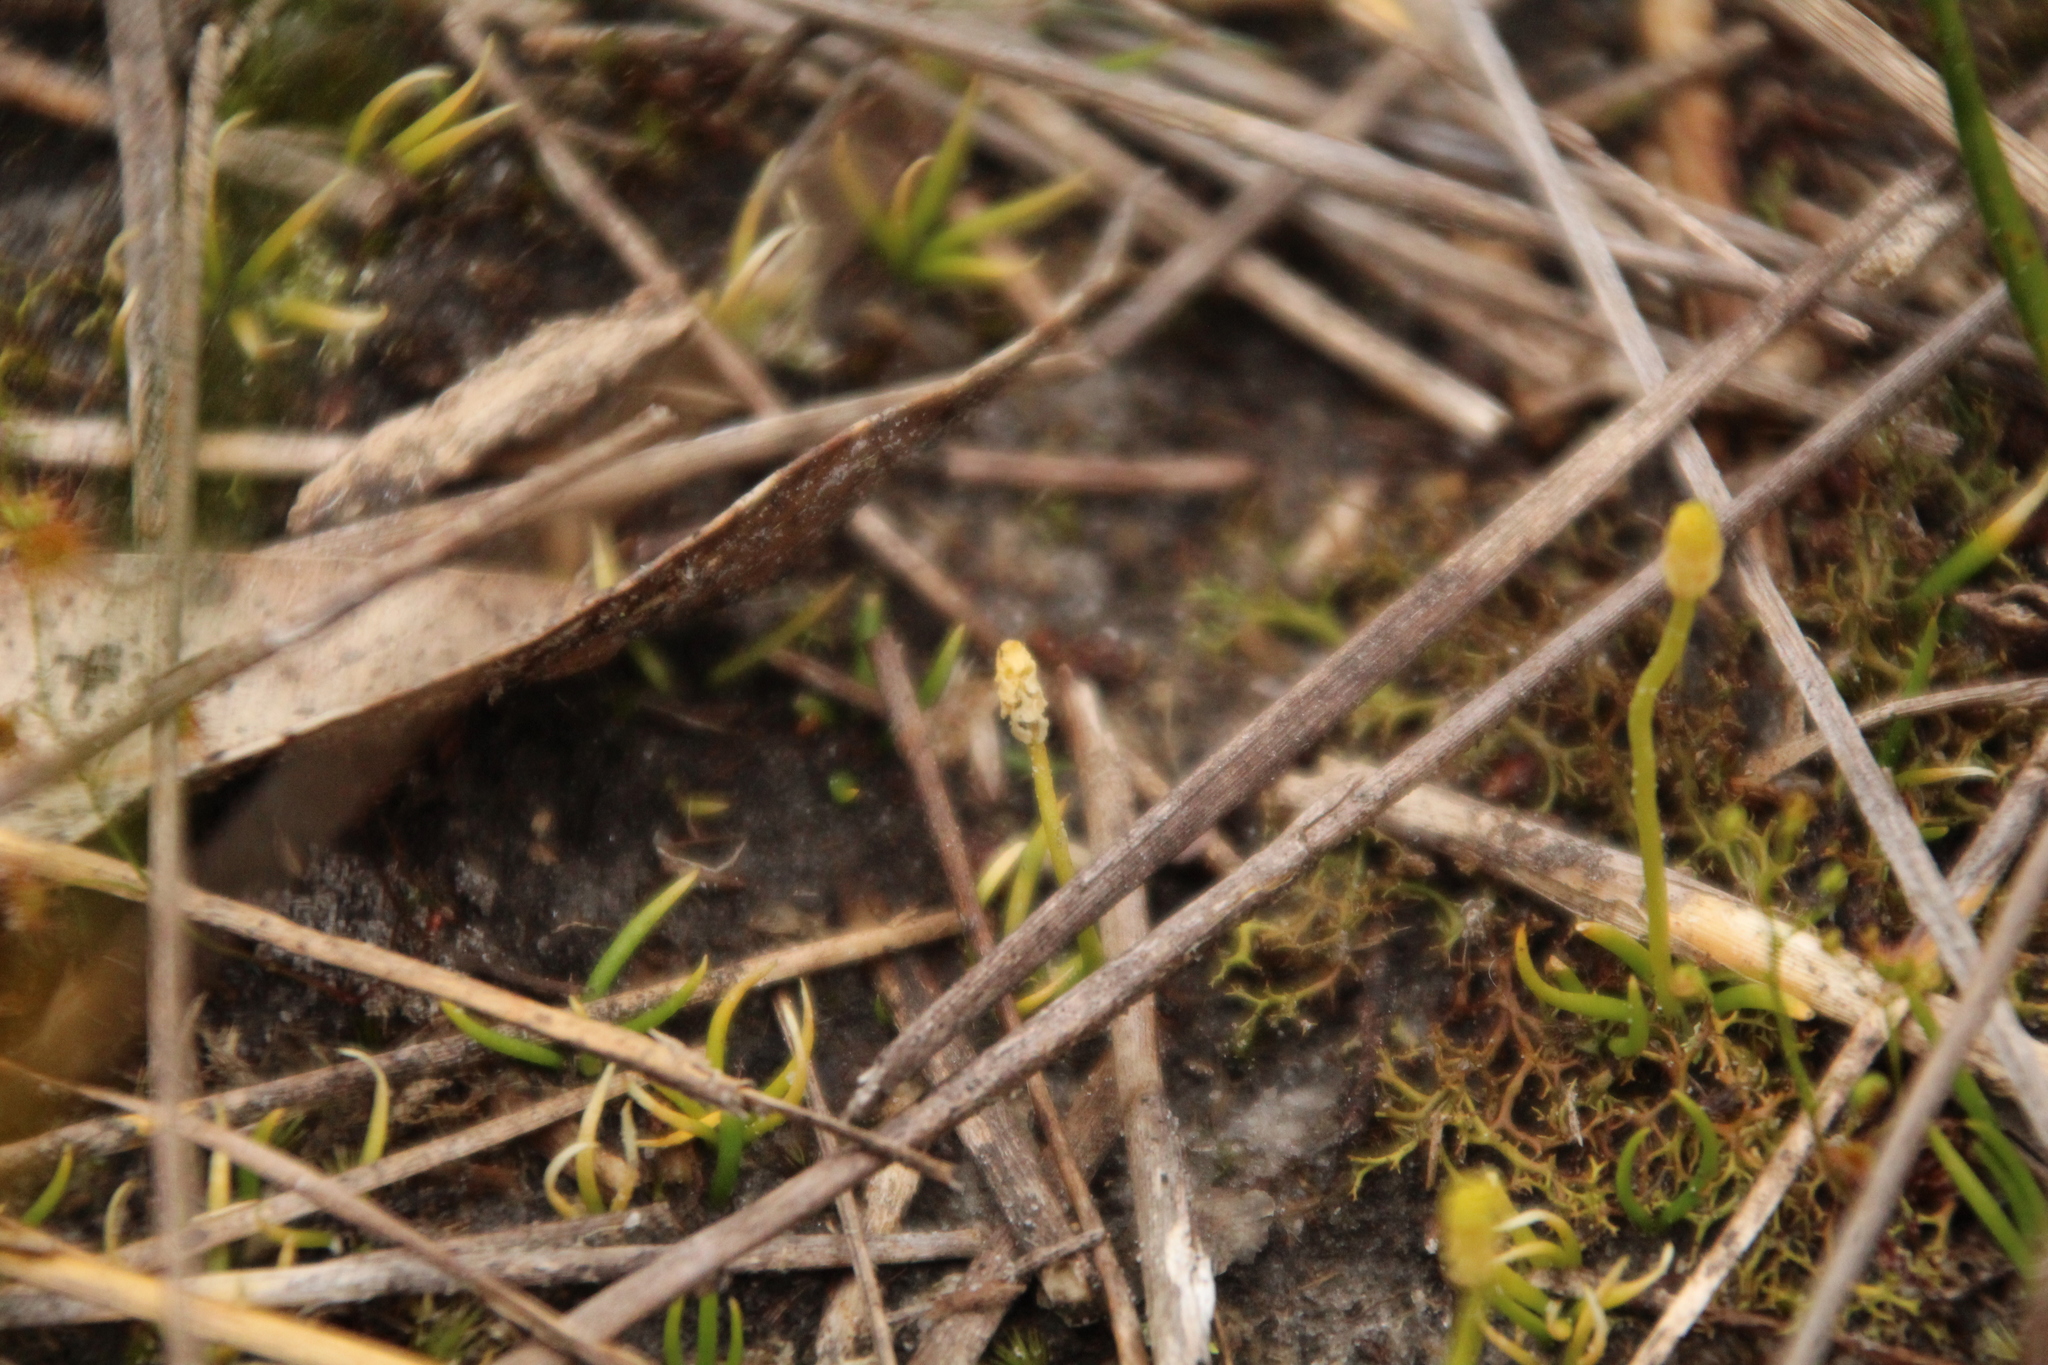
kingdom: Plantae
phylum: Tracheophyta
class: Lycopodiopsida
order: Lycopodiales
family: Lycopodiaceae
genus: Phylloglossum
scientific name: Phylloglossum drummondii
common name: Pigmy-club-moss
